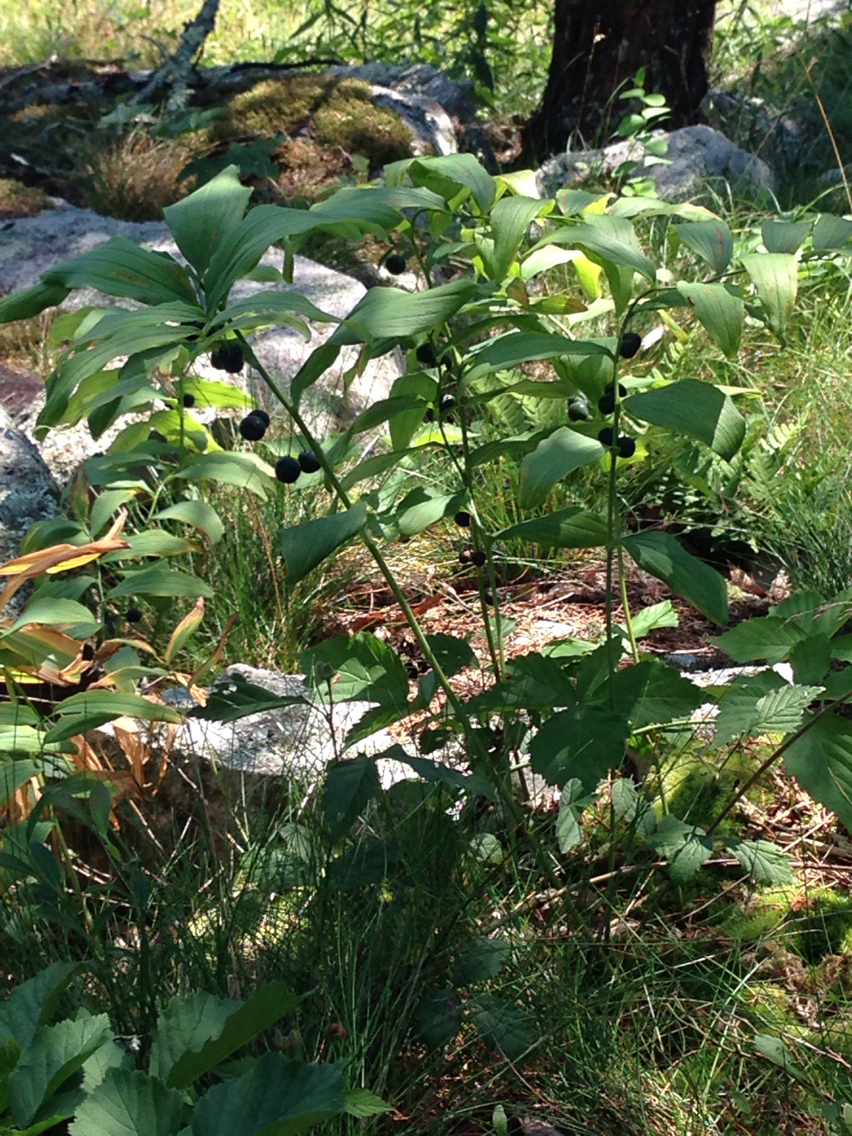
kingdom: Plantae
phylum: Tracheophyta
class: Liliopsida
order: Asparagales
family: Asparagaceae
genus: Polygonatum
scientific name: Polygonatum pubescens
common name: Downy solomon's seal
